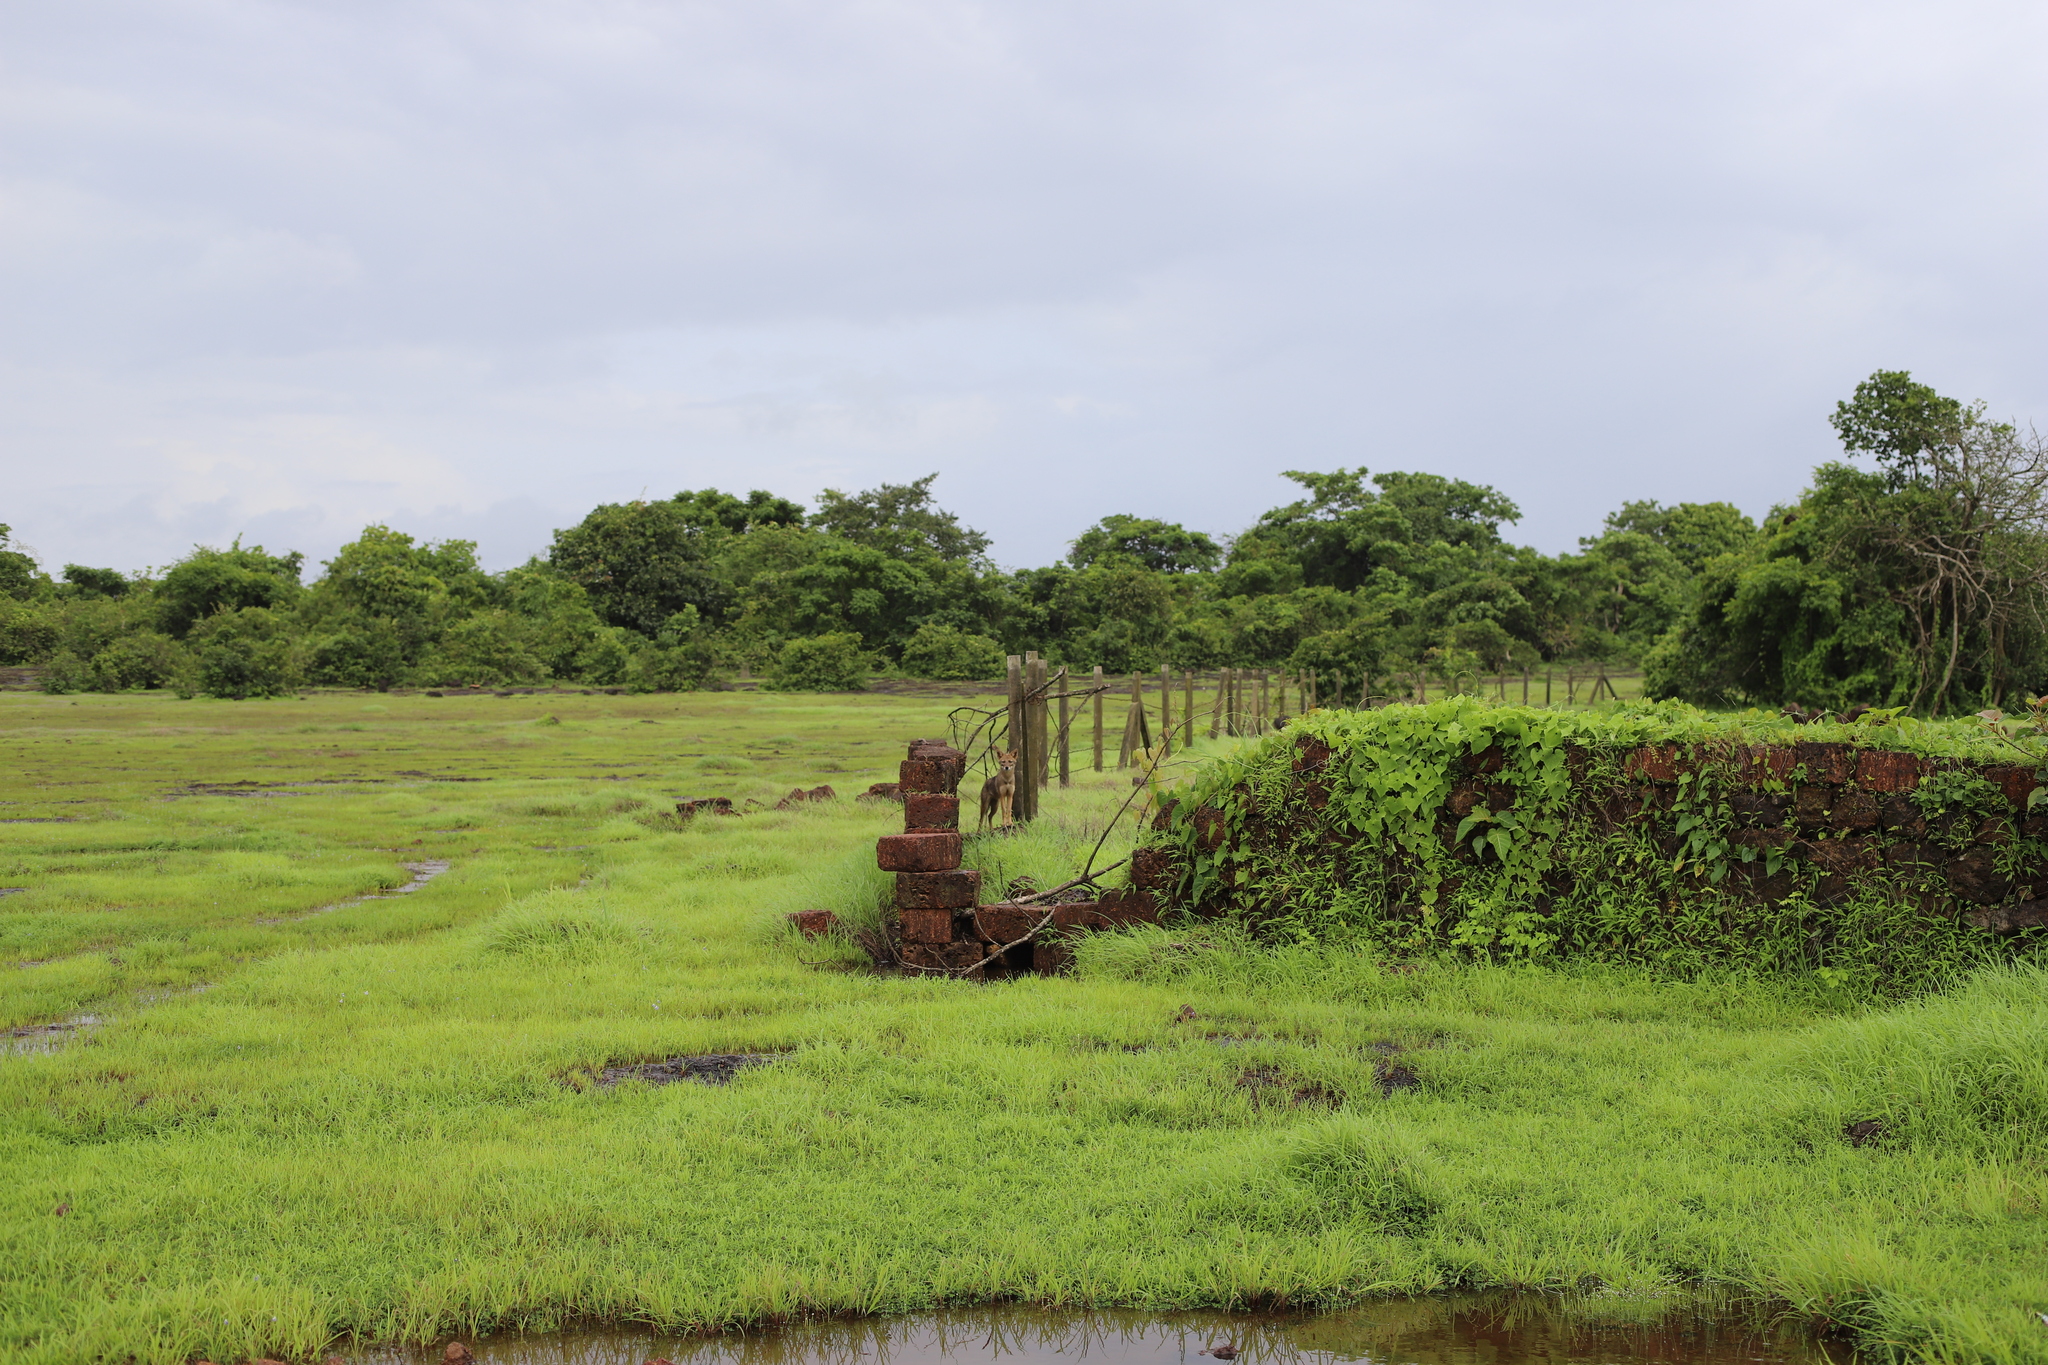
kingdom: Animalia
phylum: Chordata
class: Mammalia
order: Carnivora
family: Canidae
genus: Canis
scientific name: Canis aureus
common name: Golden jackal
